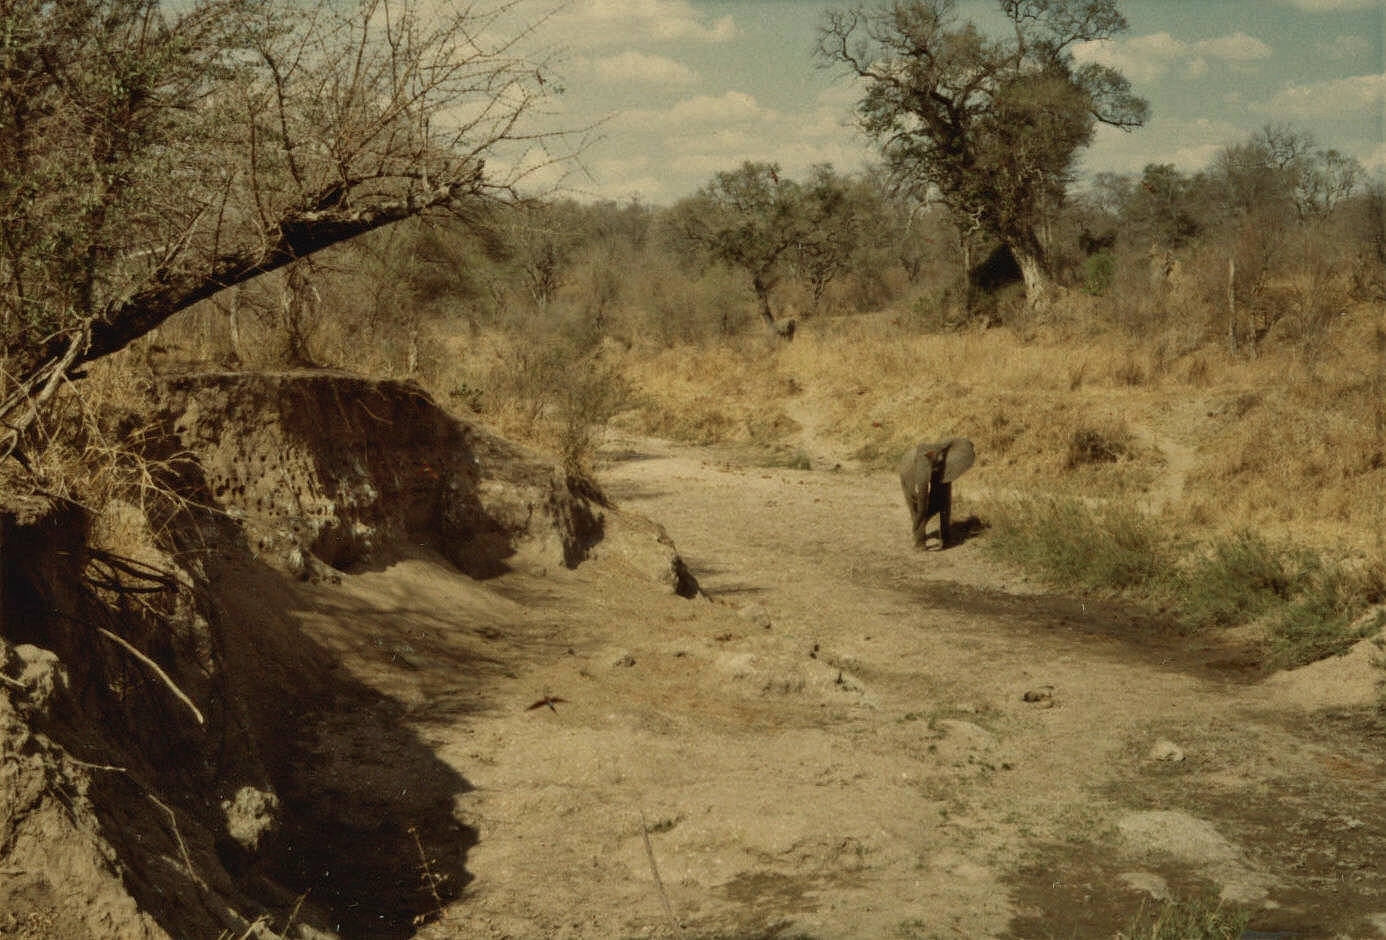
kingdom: Animalia
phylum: Chordata
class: Mammalia
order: Proboscidea
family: Elephantidae
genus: Loxodonta
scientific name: Loxodonta africana
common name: African elephant
